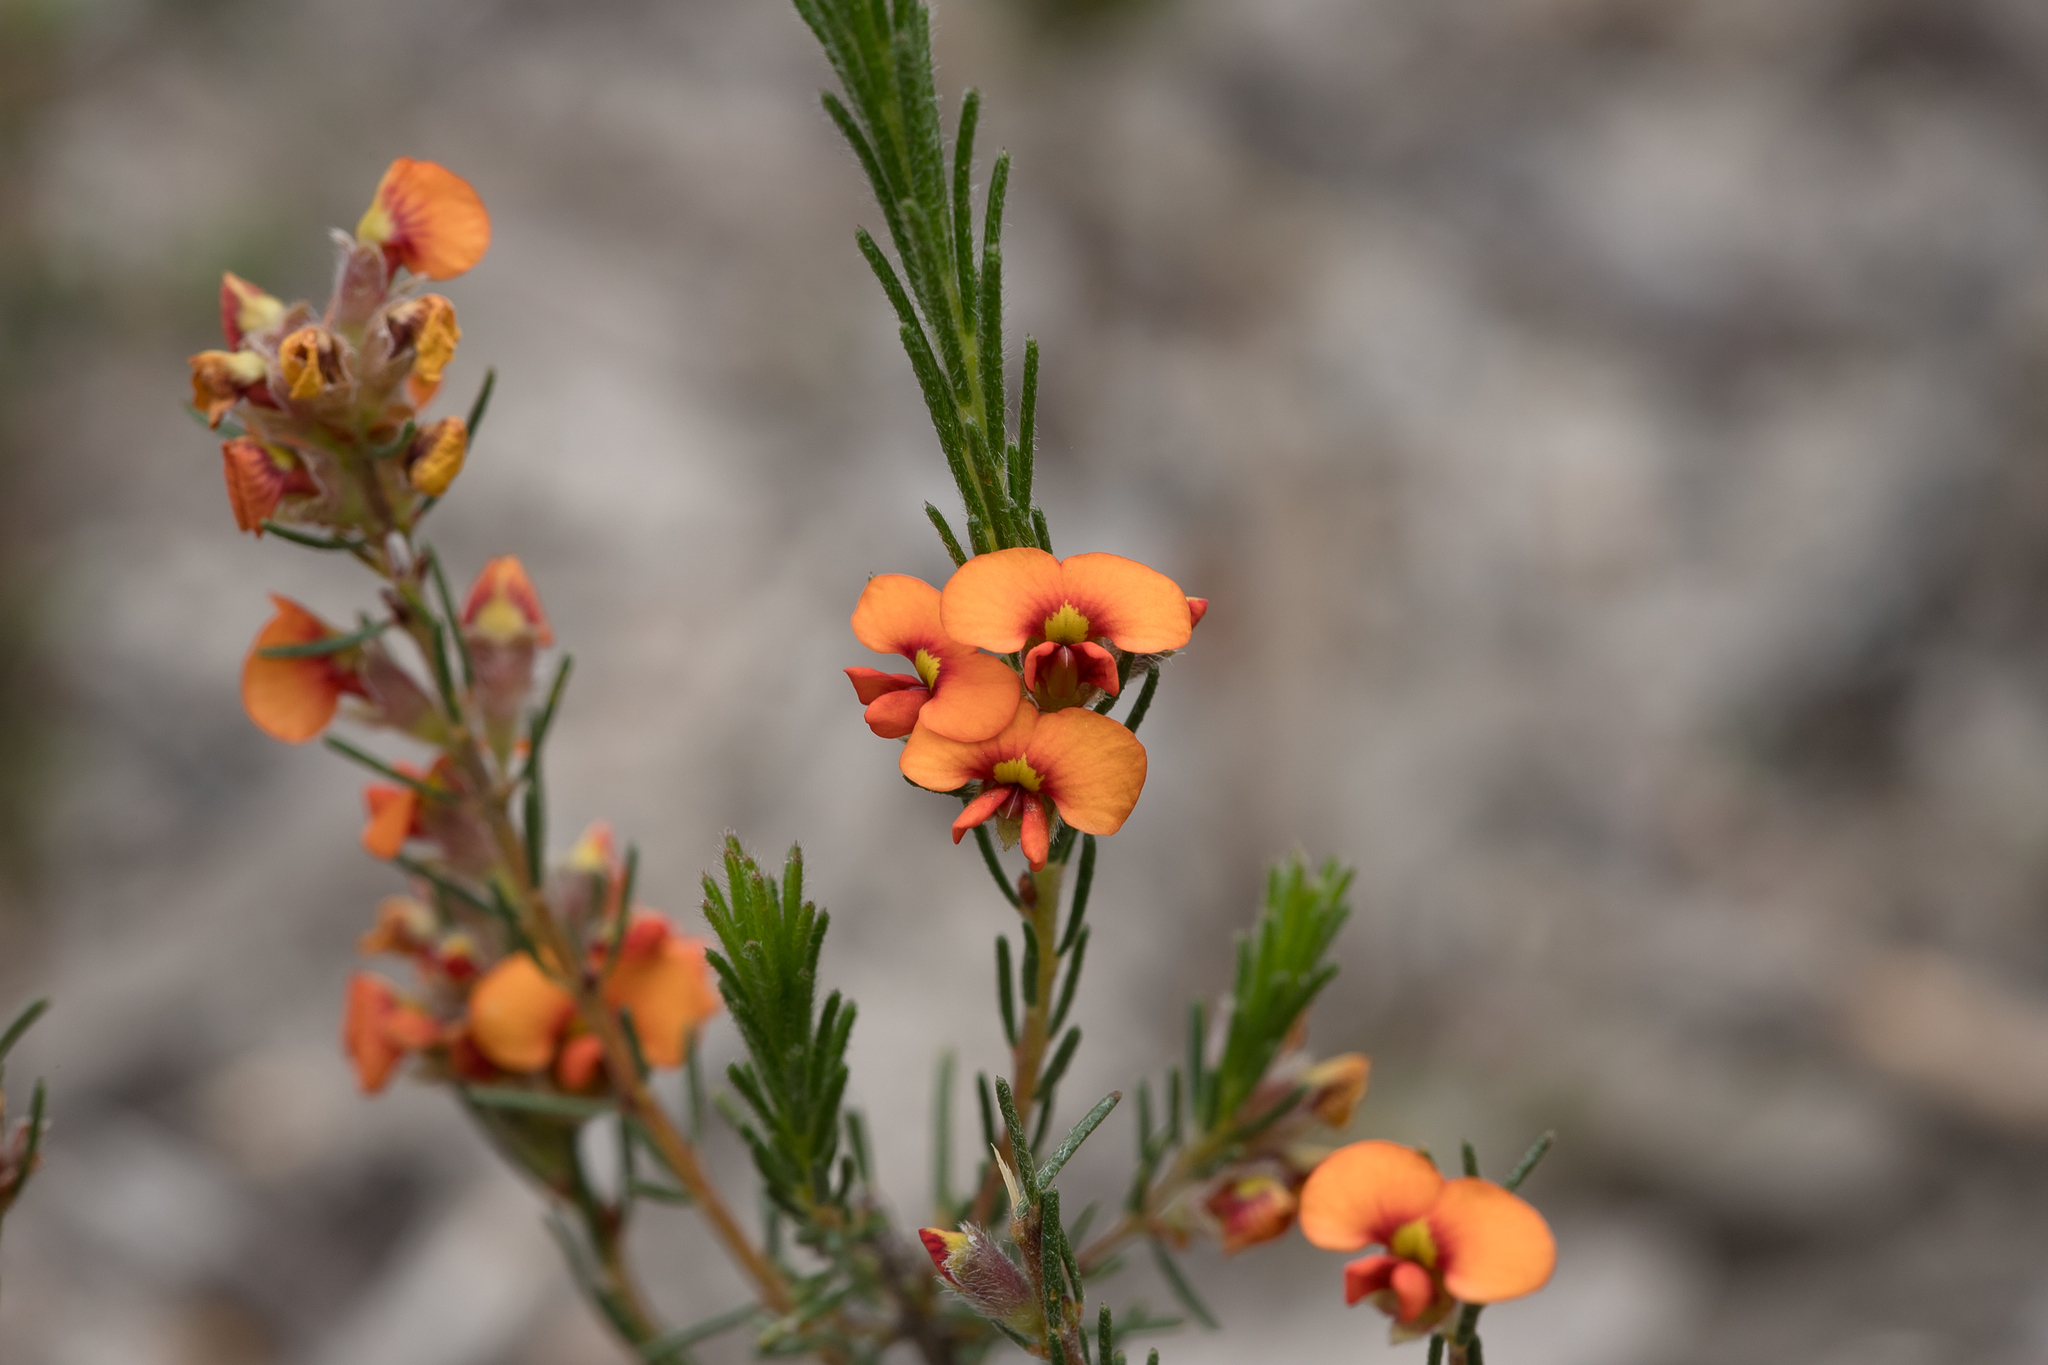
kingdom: Plantae
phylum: Tracheophyta
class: Magnoliopsida
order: Fabales
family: Fabaceae
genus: Dillwynia
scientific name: Dillwynia sericea
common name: Showy parrot-pea
